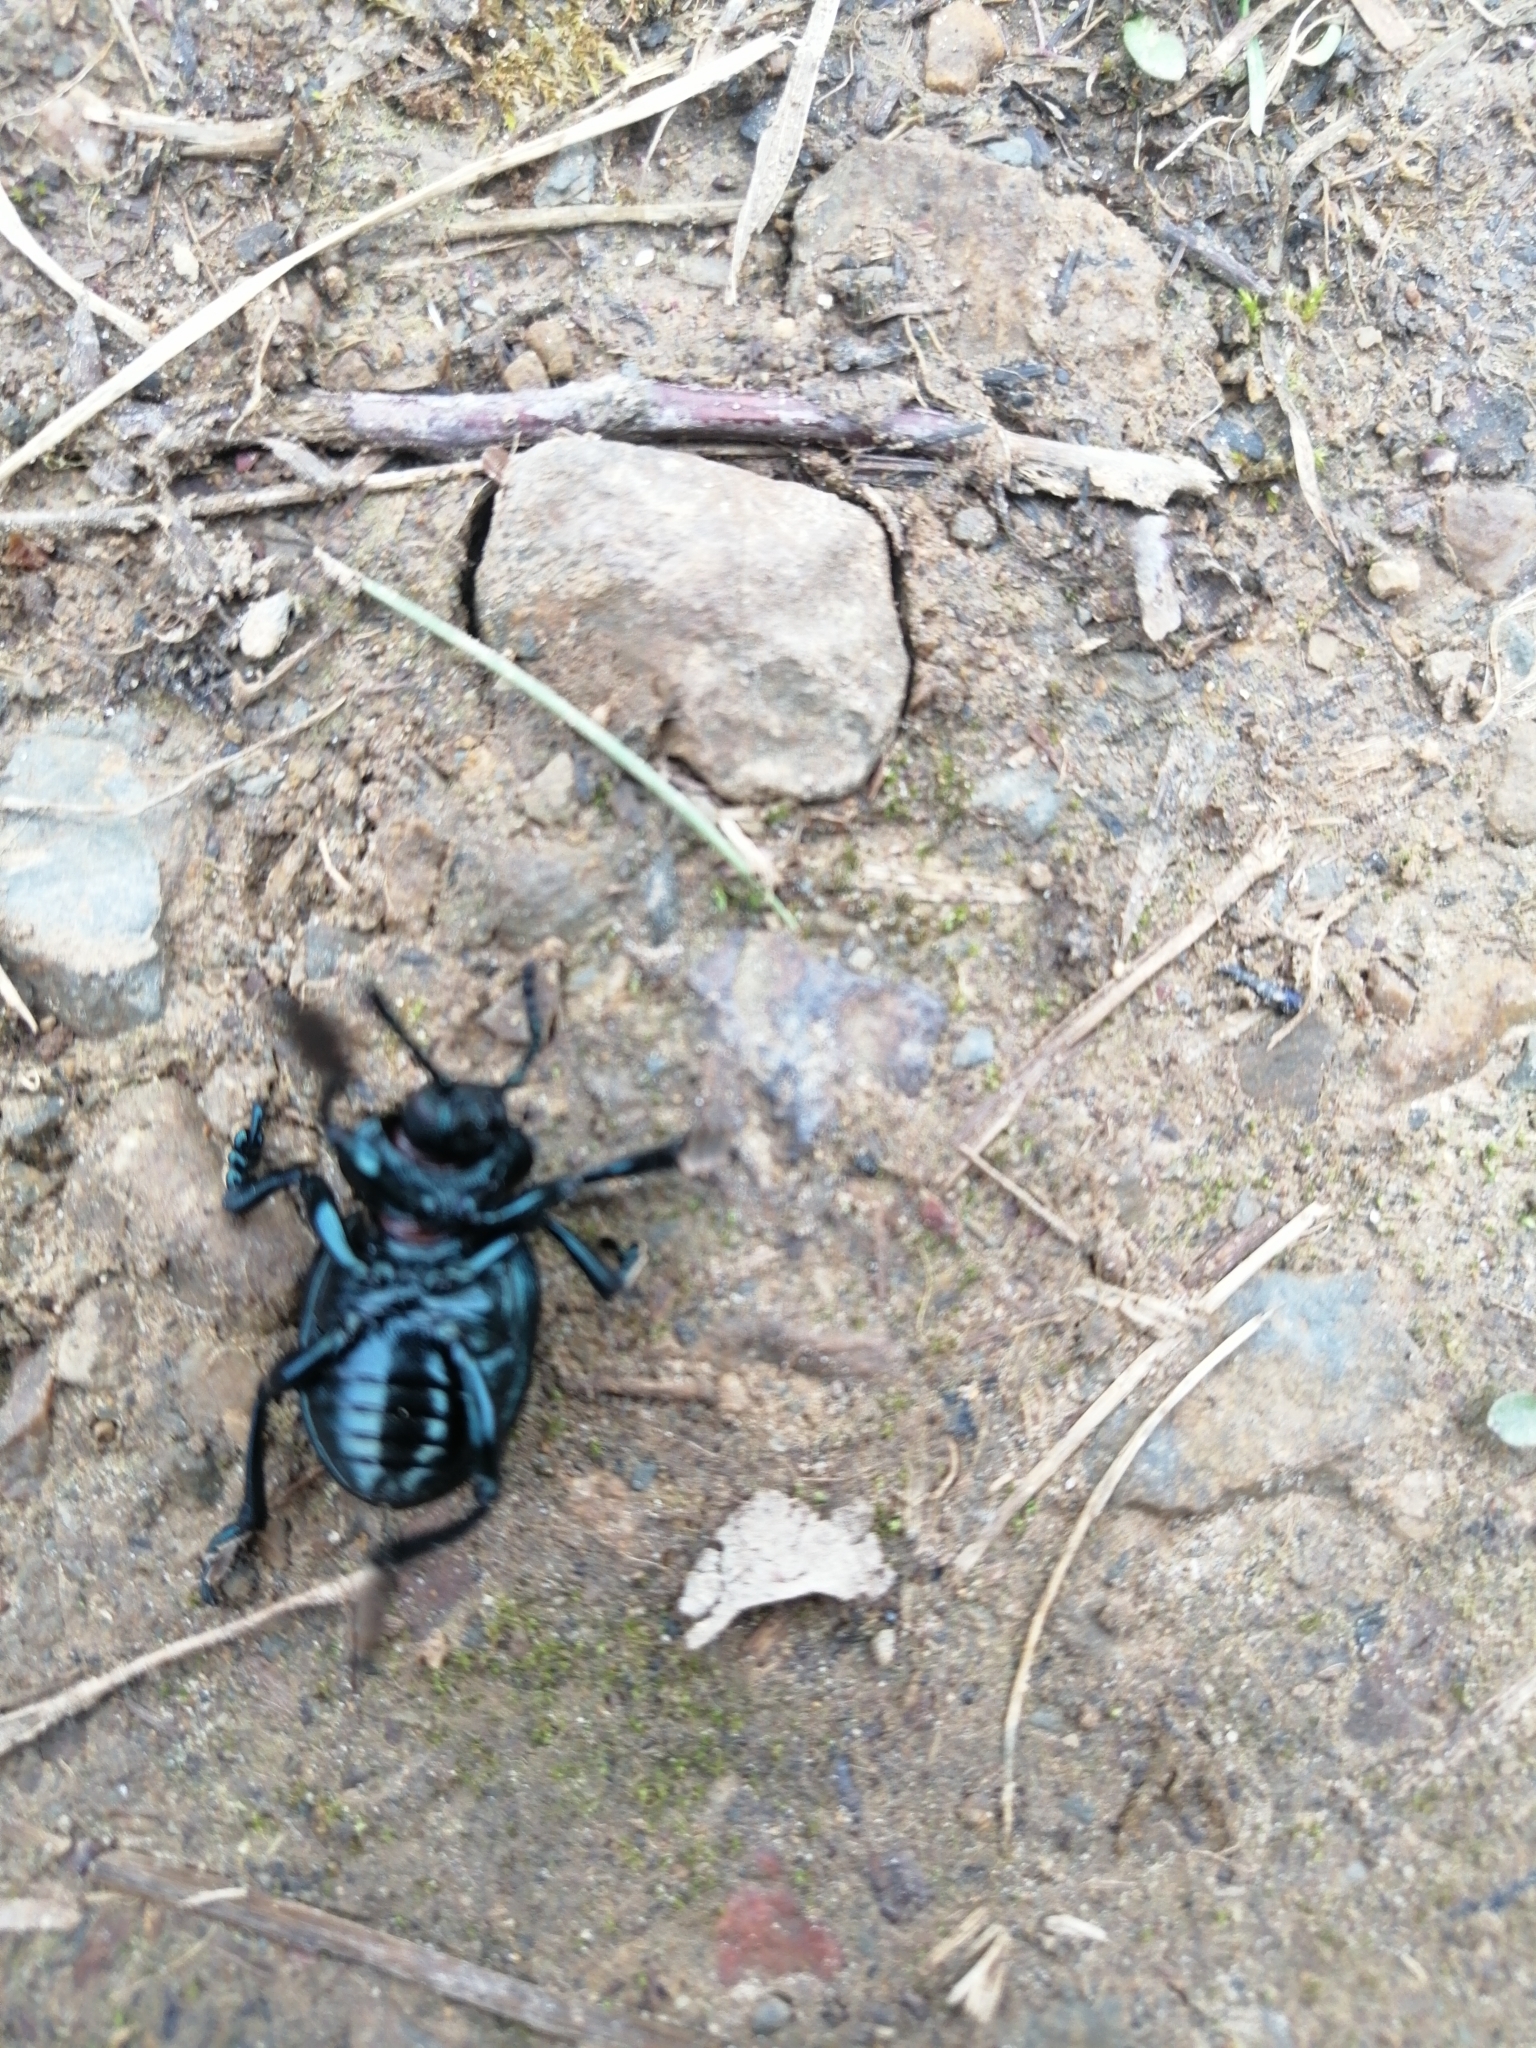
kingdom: Animalia
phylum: Arthropoda
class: Insecta
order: Coleoptera
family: Chrysomelidae
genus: Timarcha
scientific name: Timarcha tenebricosa
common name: Bloody-nosed beetle
